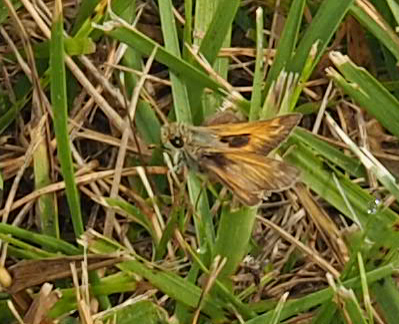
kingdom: Animalia
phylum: Arthropoda
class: Insecta
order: Lepidoptera
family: Hesperiidae
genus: Atalopedes
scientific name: Atalopedes
